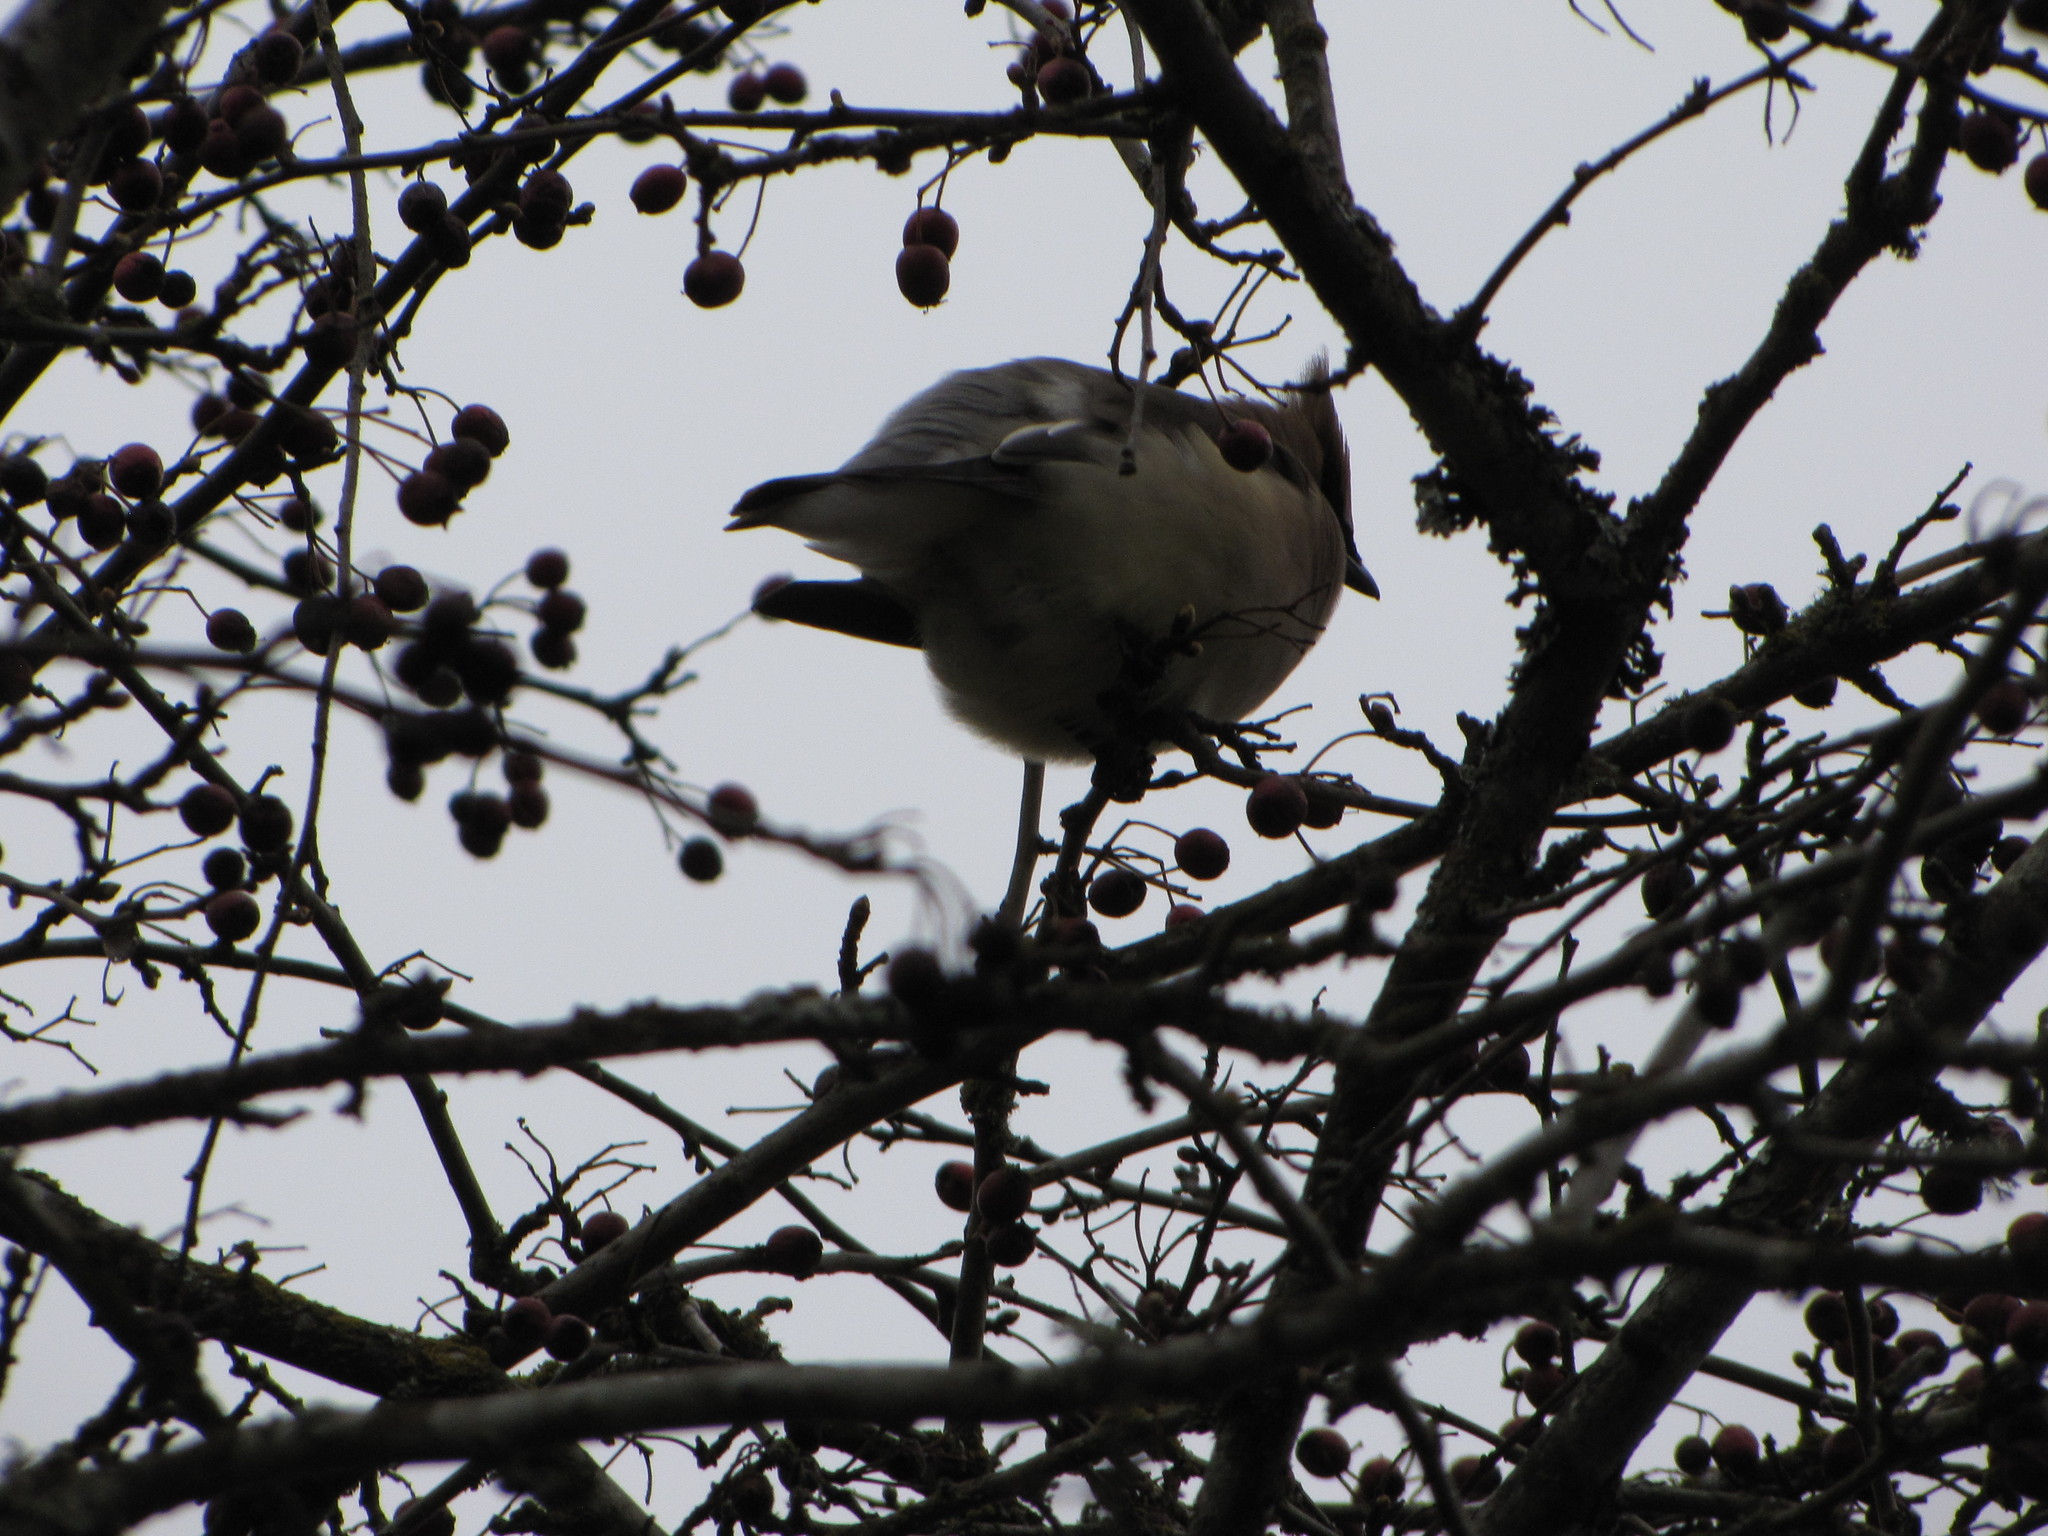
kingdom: Animalia
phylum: Chordata
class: Aves
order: Passeriformes
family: Bombycillidae
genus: Bombycilla
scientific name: Bombycilla cedrorum
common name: Cedar waxwing
